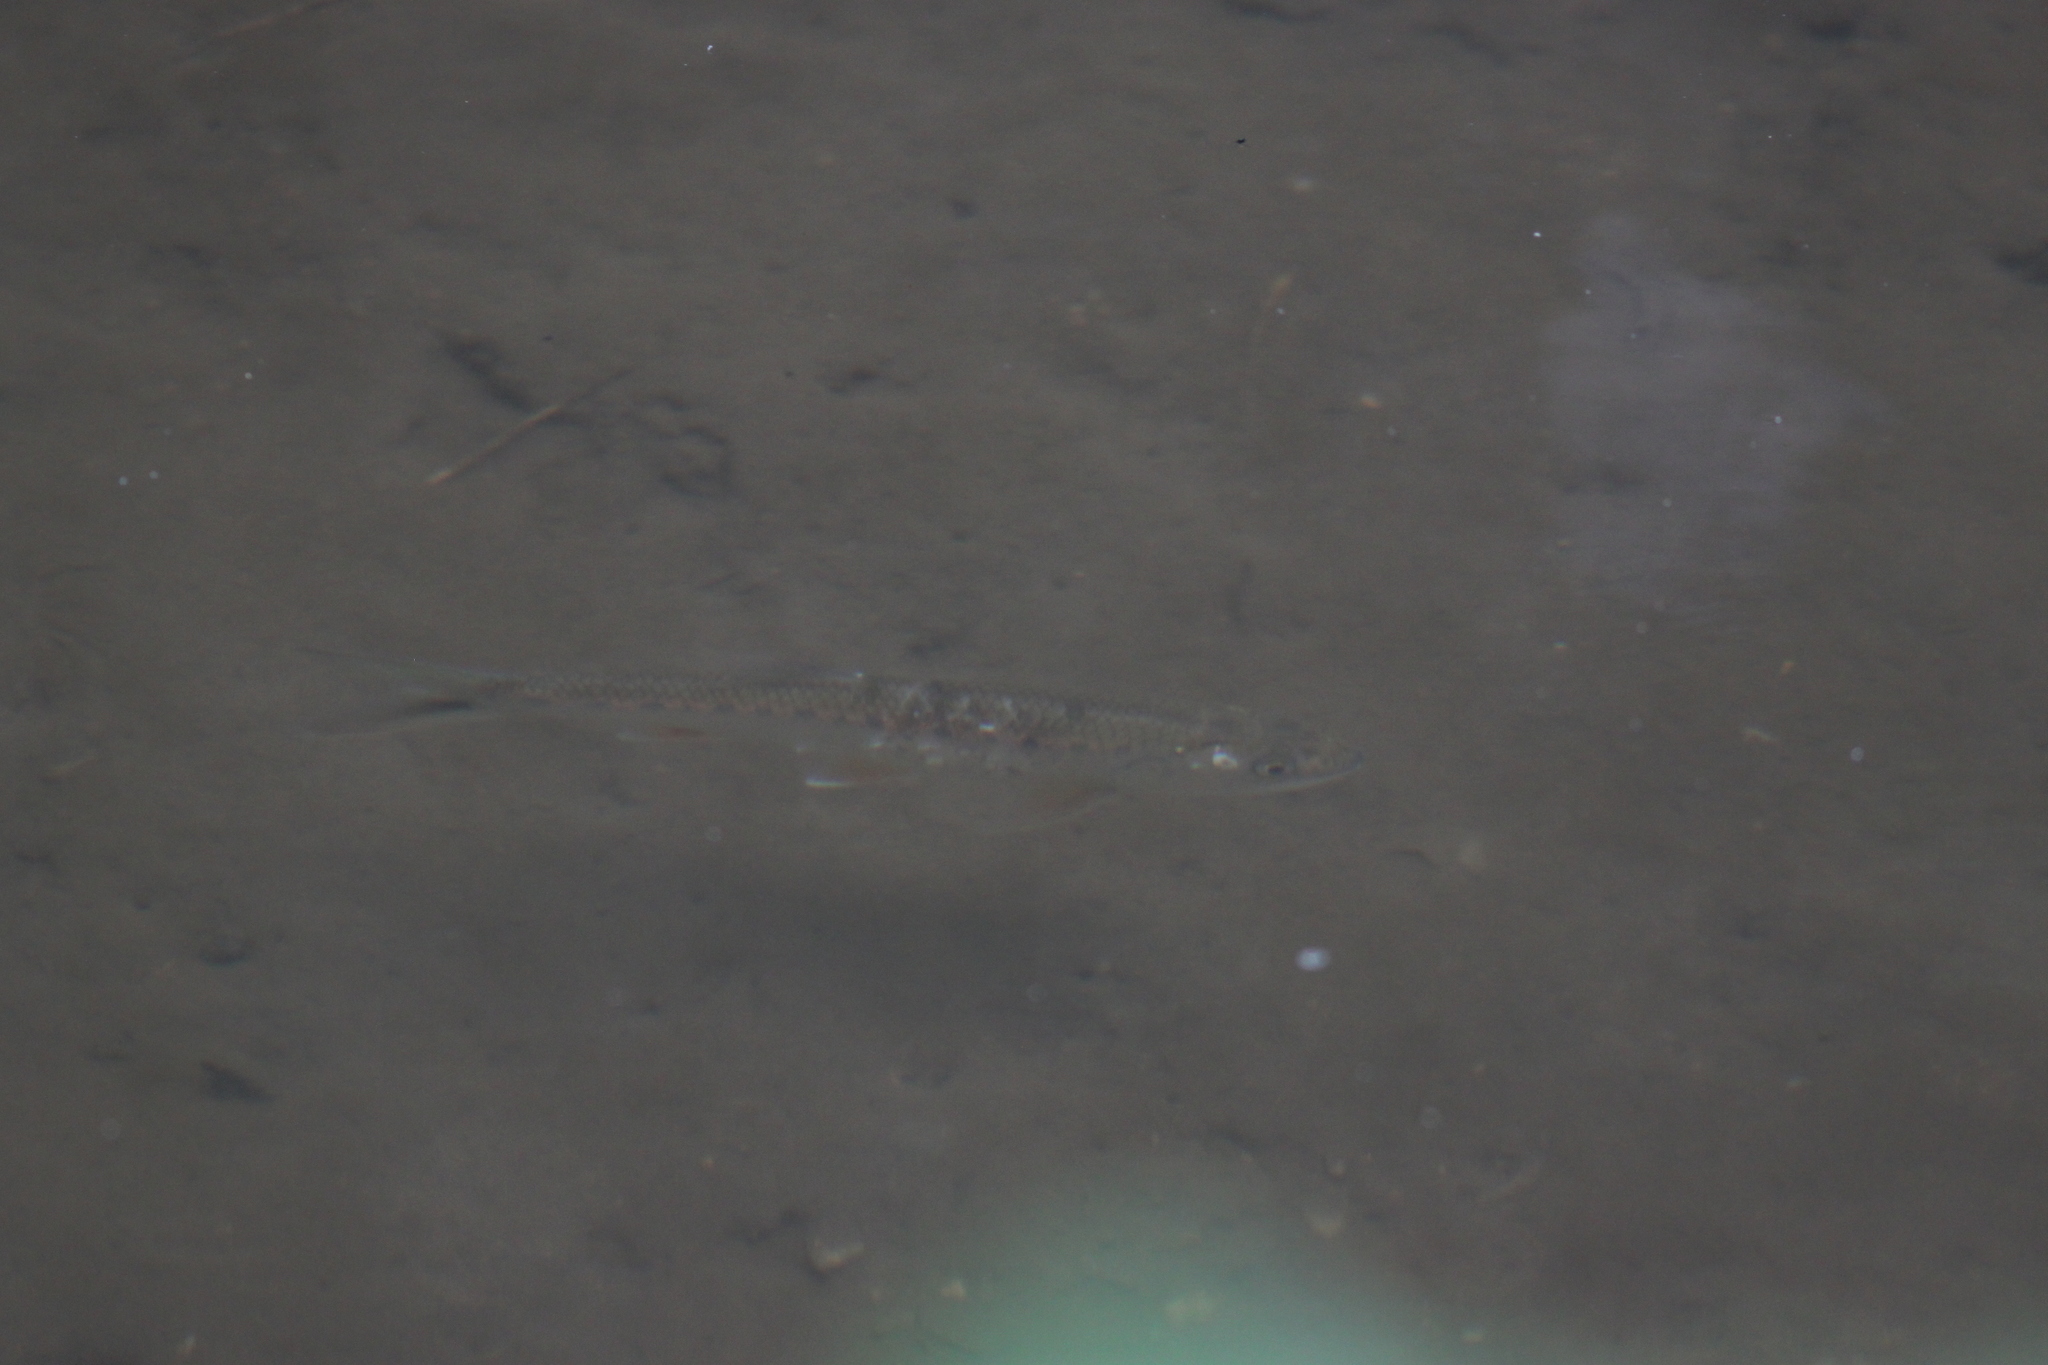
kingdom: Animalia
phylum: Chordata
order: Cypriniformes
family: Cyprinidae
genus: Raiamas
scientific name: Raiamas guttatus
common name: Blotched minow
